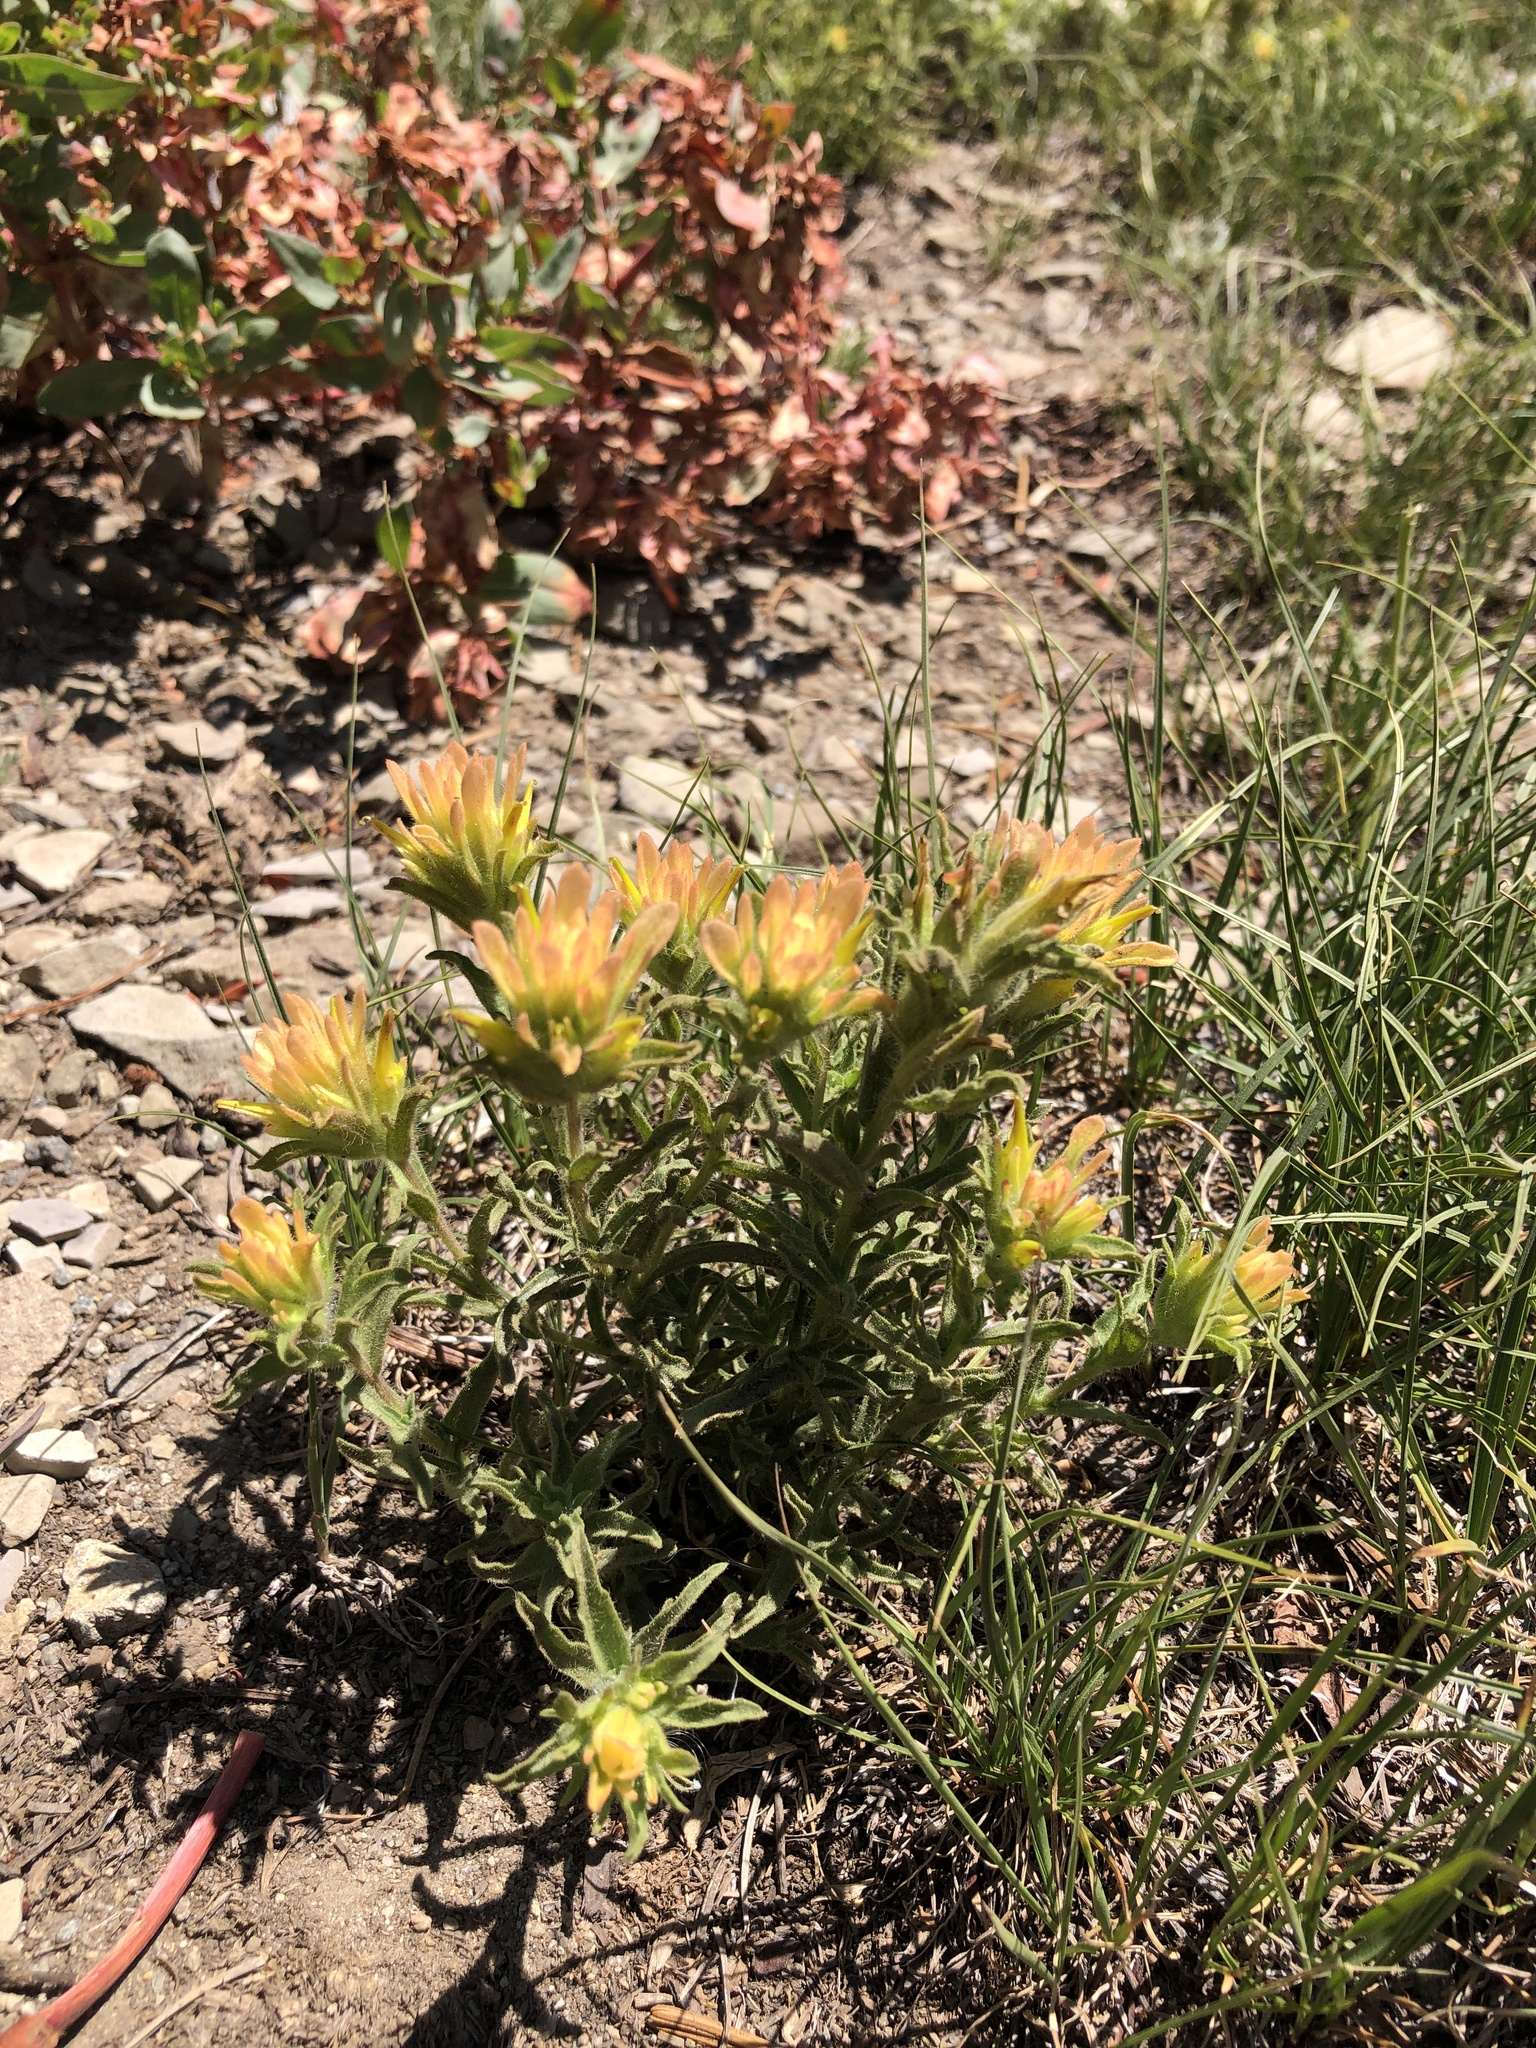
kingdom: Plantae
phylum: Tracheophyta
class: Magnoliopsida
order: Lamiales
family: Orobanchaceae
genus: Castilleja
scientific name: Castilleja applegatei
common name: Wavy-leaf paintbrush
